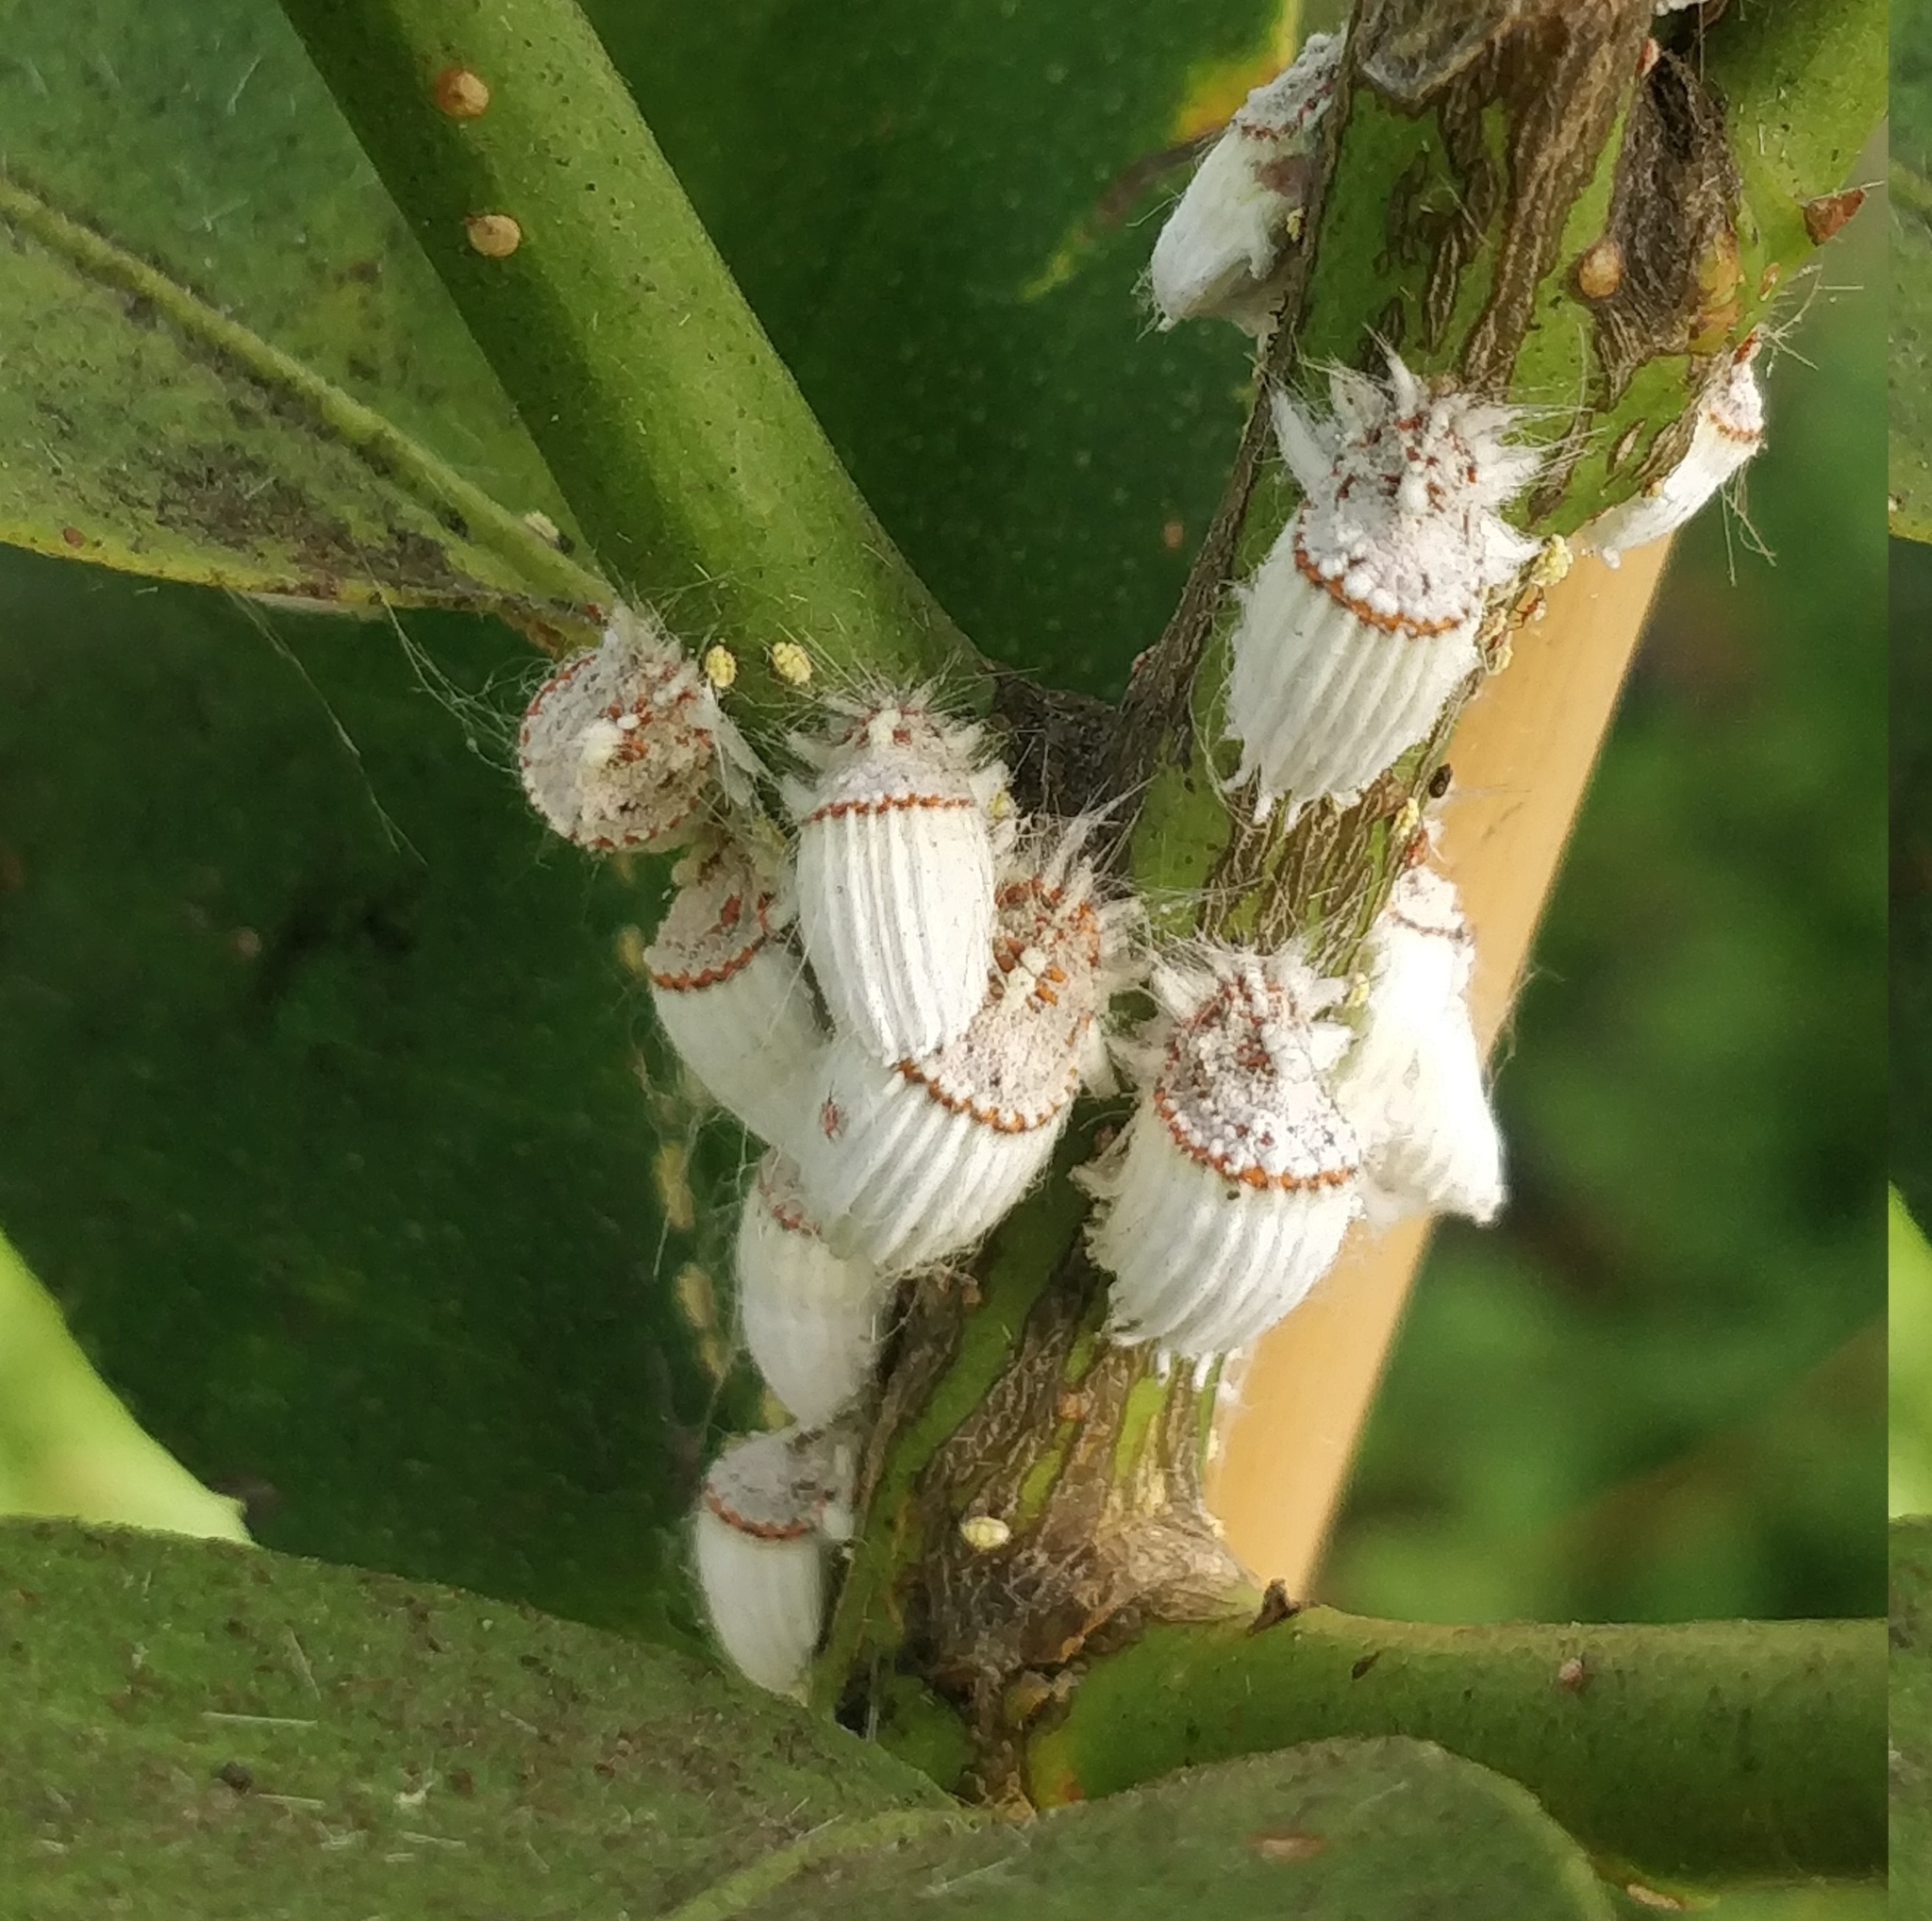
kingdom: Animalia
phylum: Arthropoda
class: Insecta
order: Hemiptera
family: Margarodidae
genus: Icerya
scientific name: Icerya purchasi
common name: Cottony cushion scale
